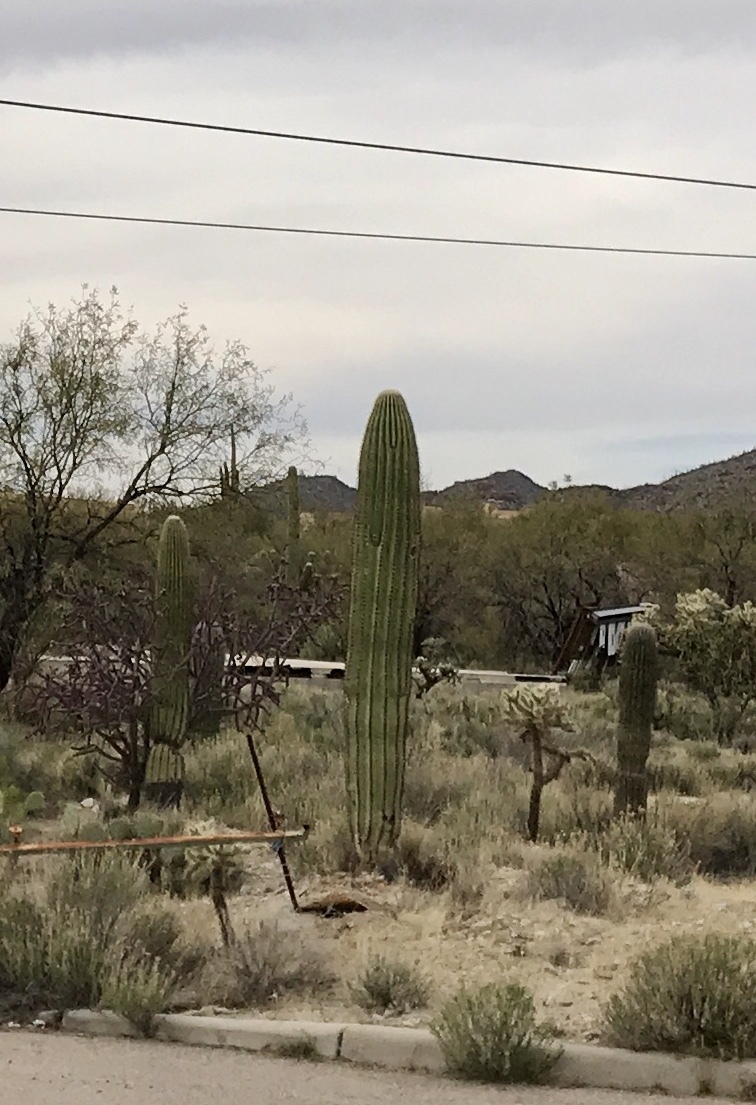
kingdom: Plantae
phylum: Tracheophyta
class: Magnoliopsida
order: Caryophyllales
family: Cactaceae
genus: Carnegiea
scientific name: Carnegiea gigantea
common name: Saguaro
